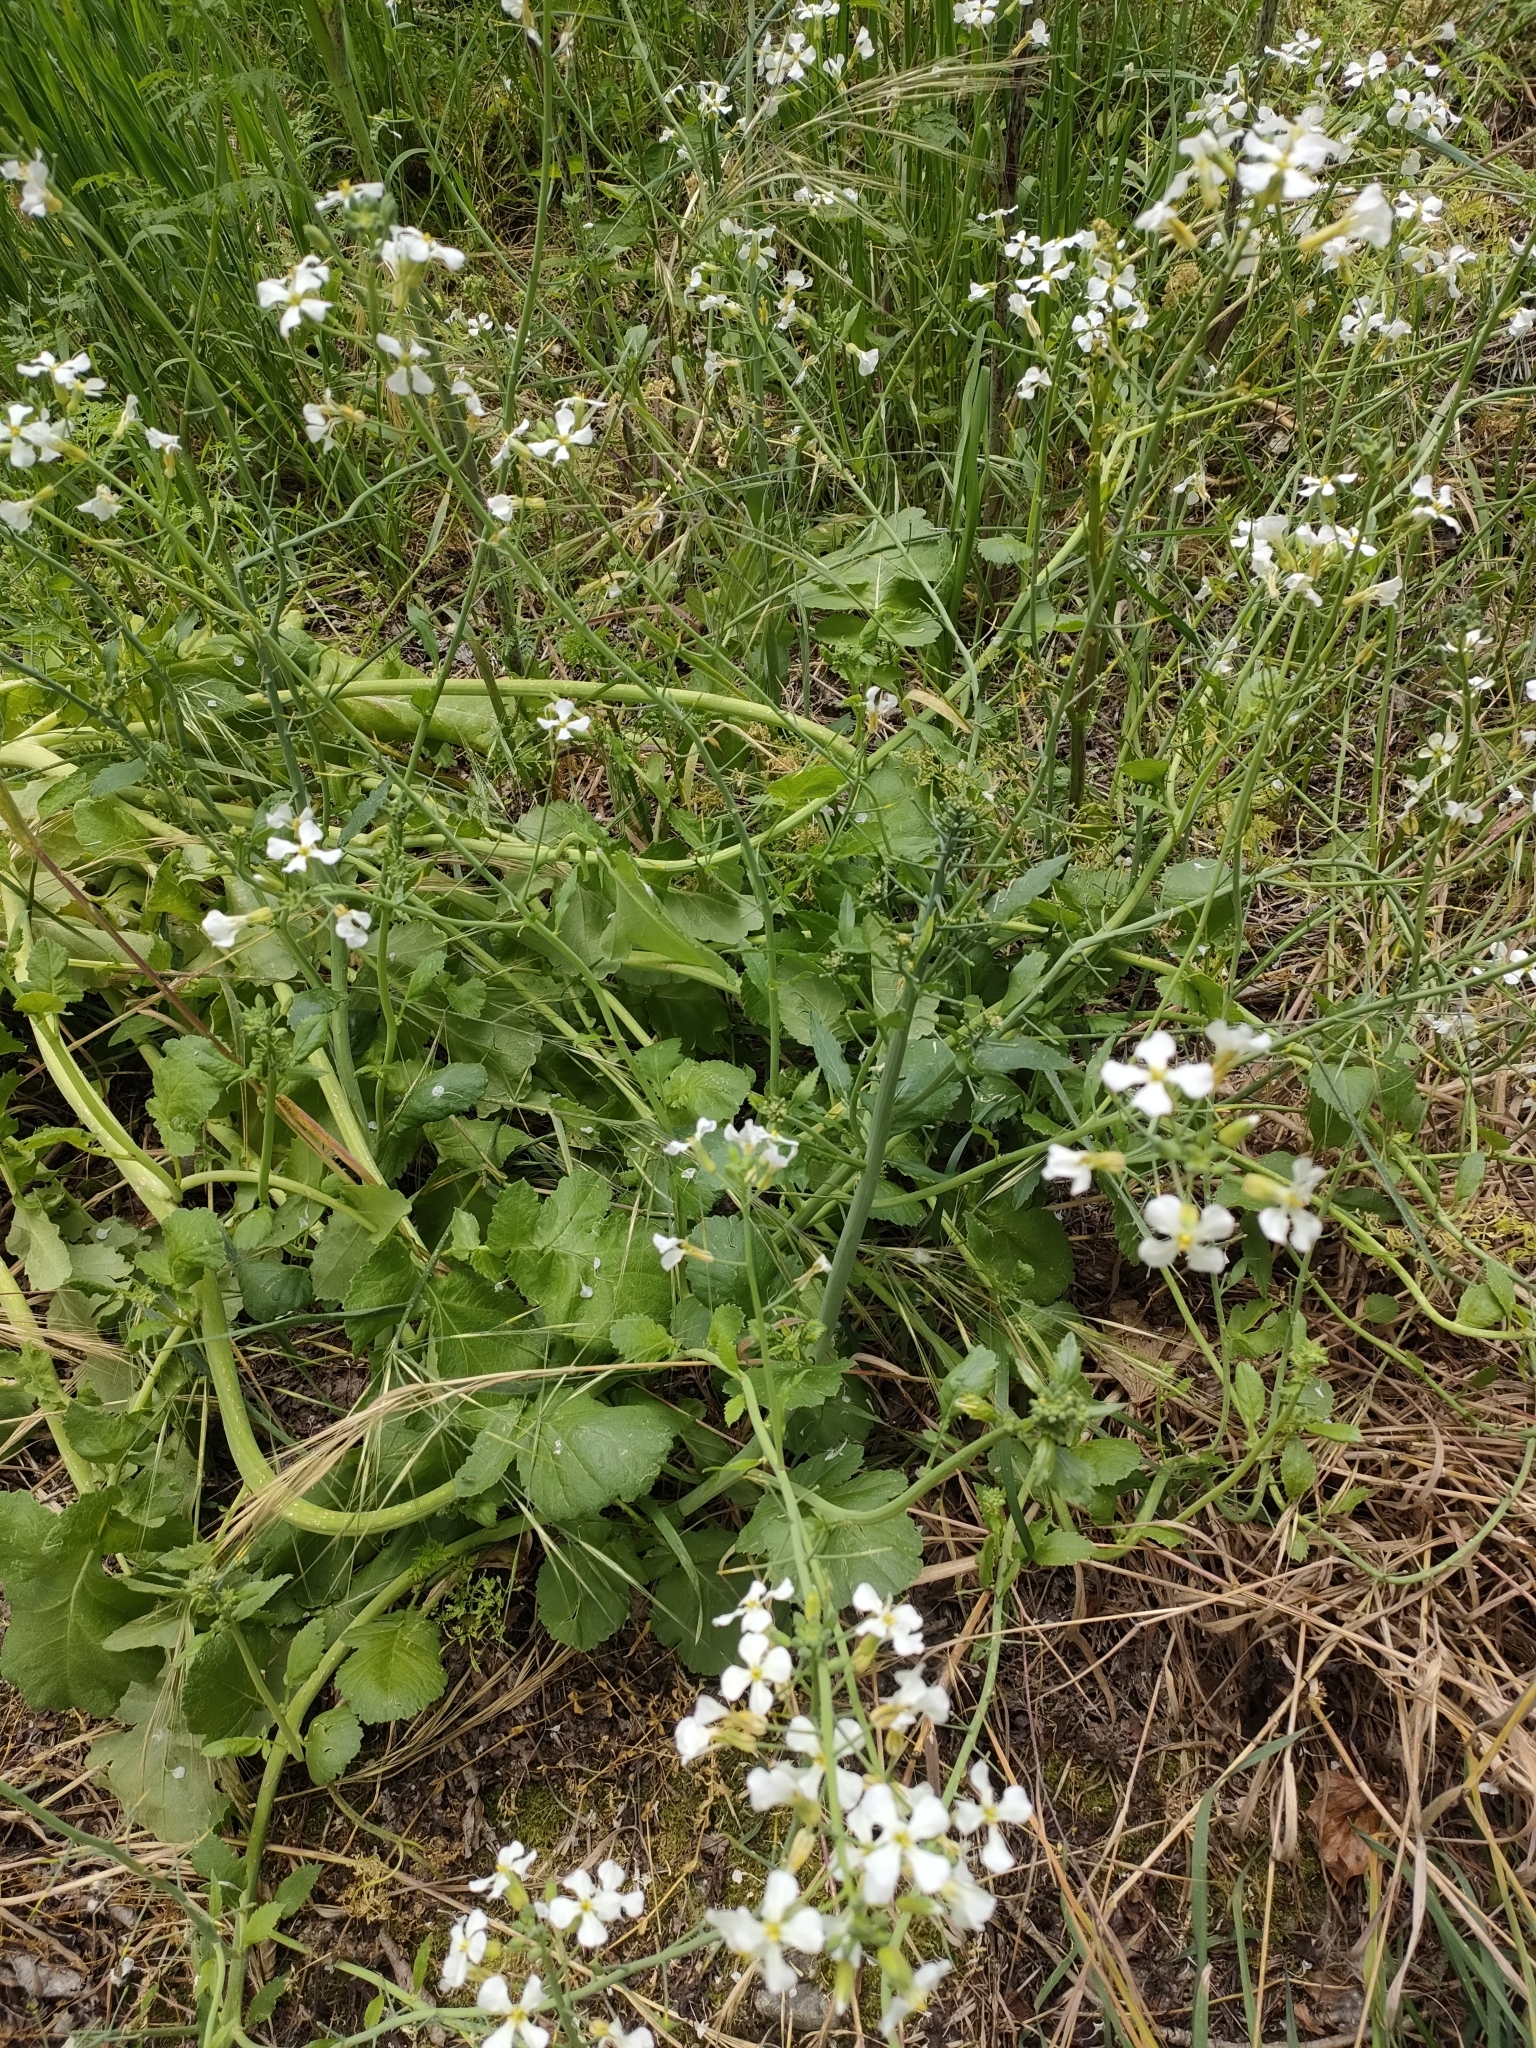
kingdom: Plantae
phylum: Tracheophyta
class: Magnoliopsida
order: Brassicales
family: Brassicaceae
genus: Raphanus
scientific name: Raphanus raphanistrum
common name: Wild radish
